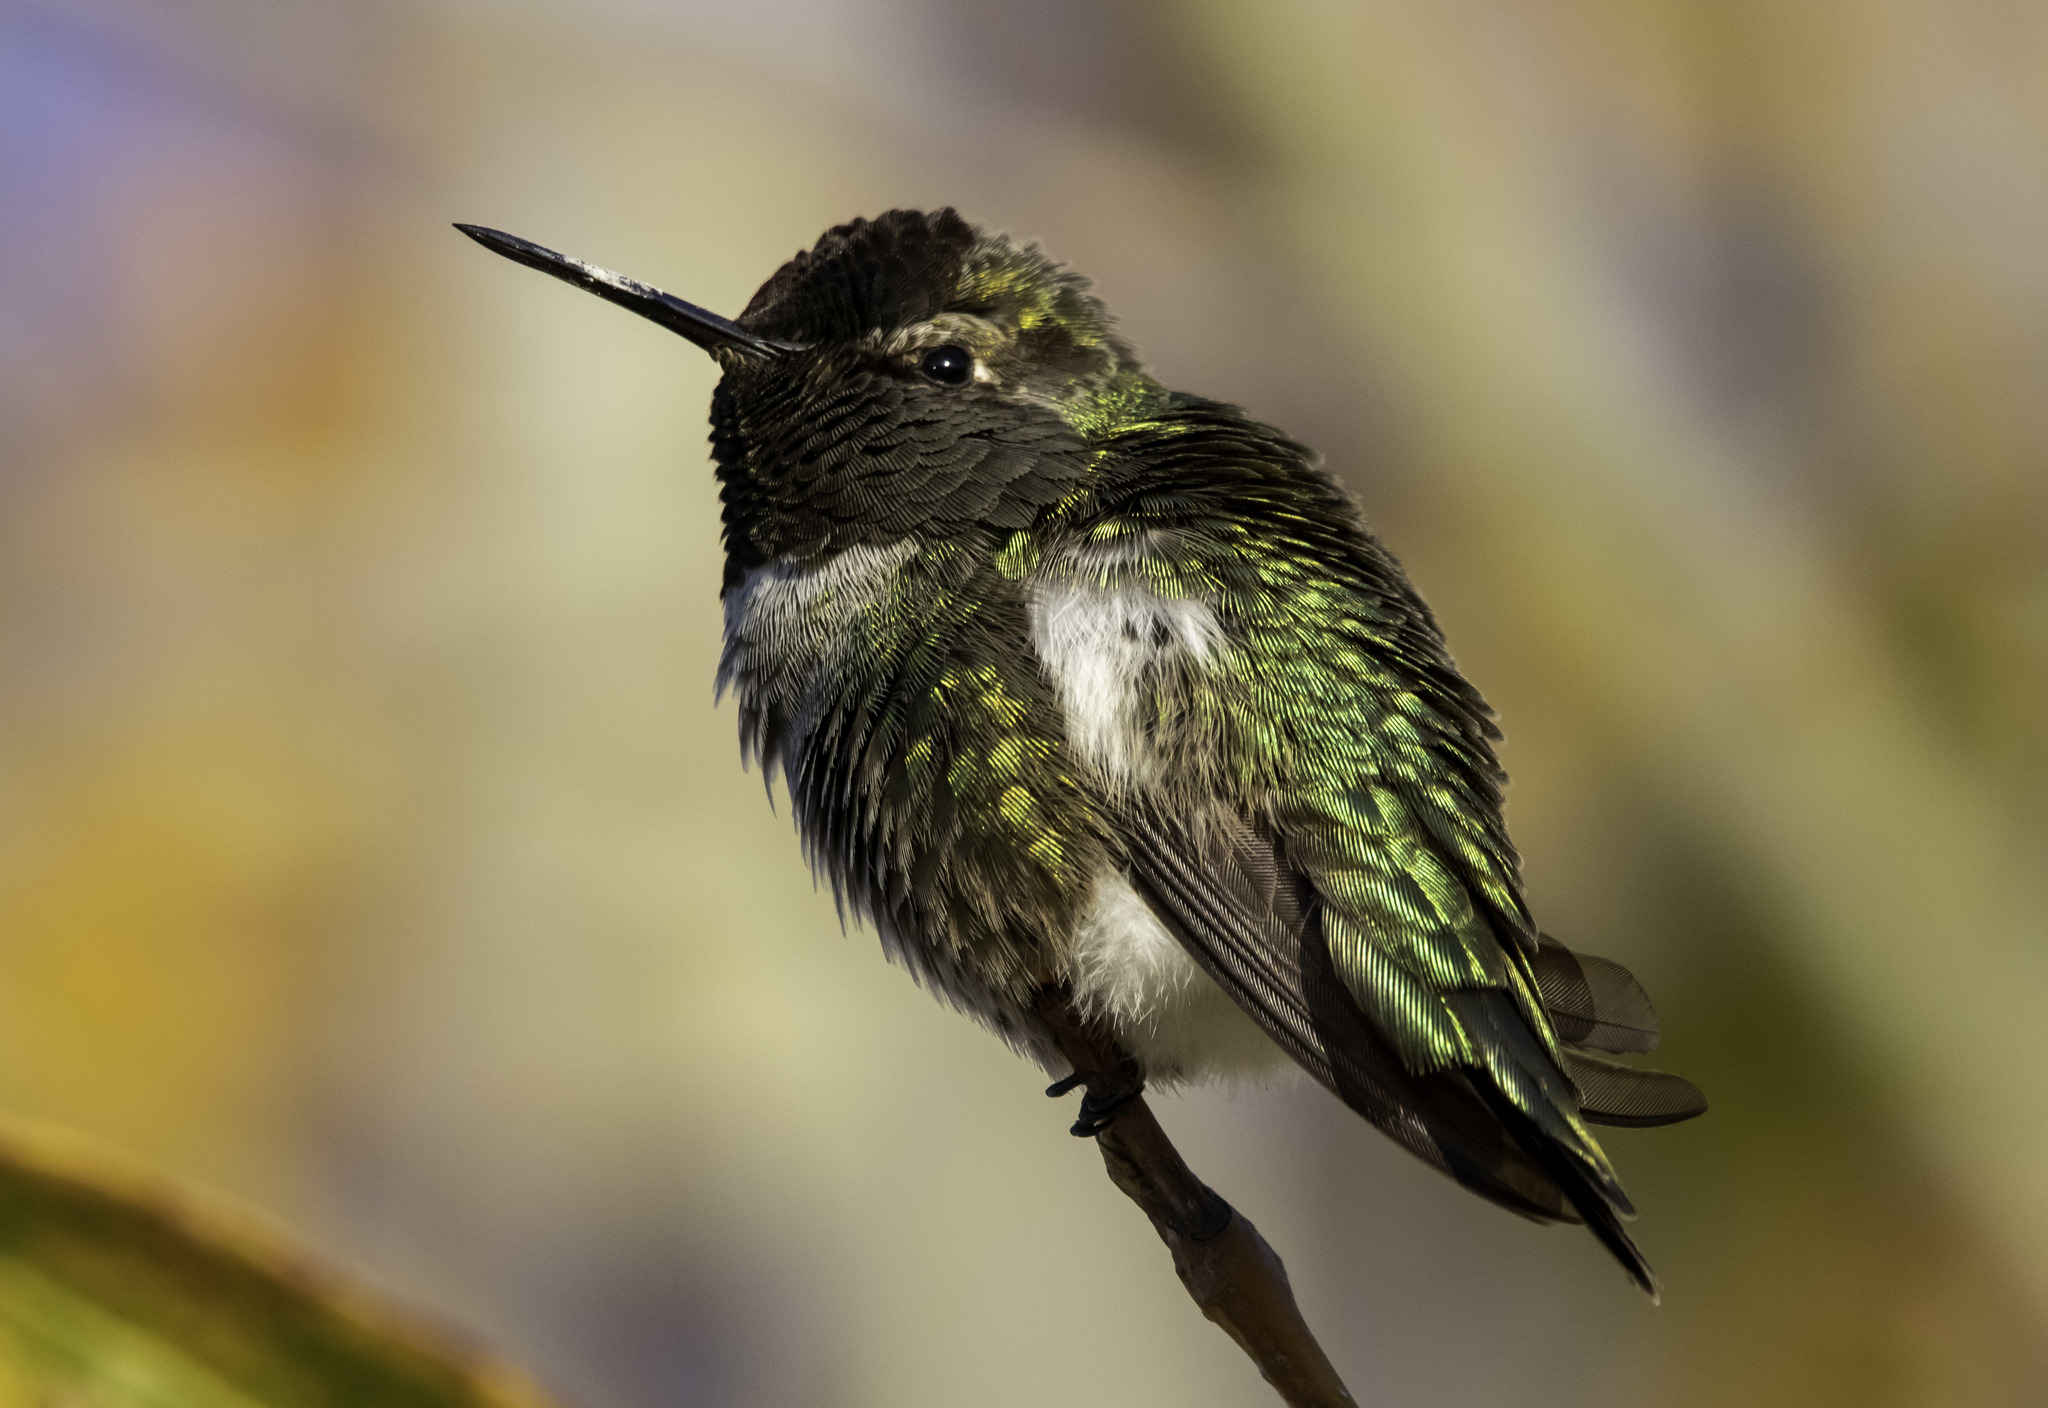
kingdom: Animalia
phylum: Chordata
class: Aves
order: Apodiformes
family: Trochilidae
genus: Calypte
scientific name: Calypte anna
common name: Anna's hummingbird
